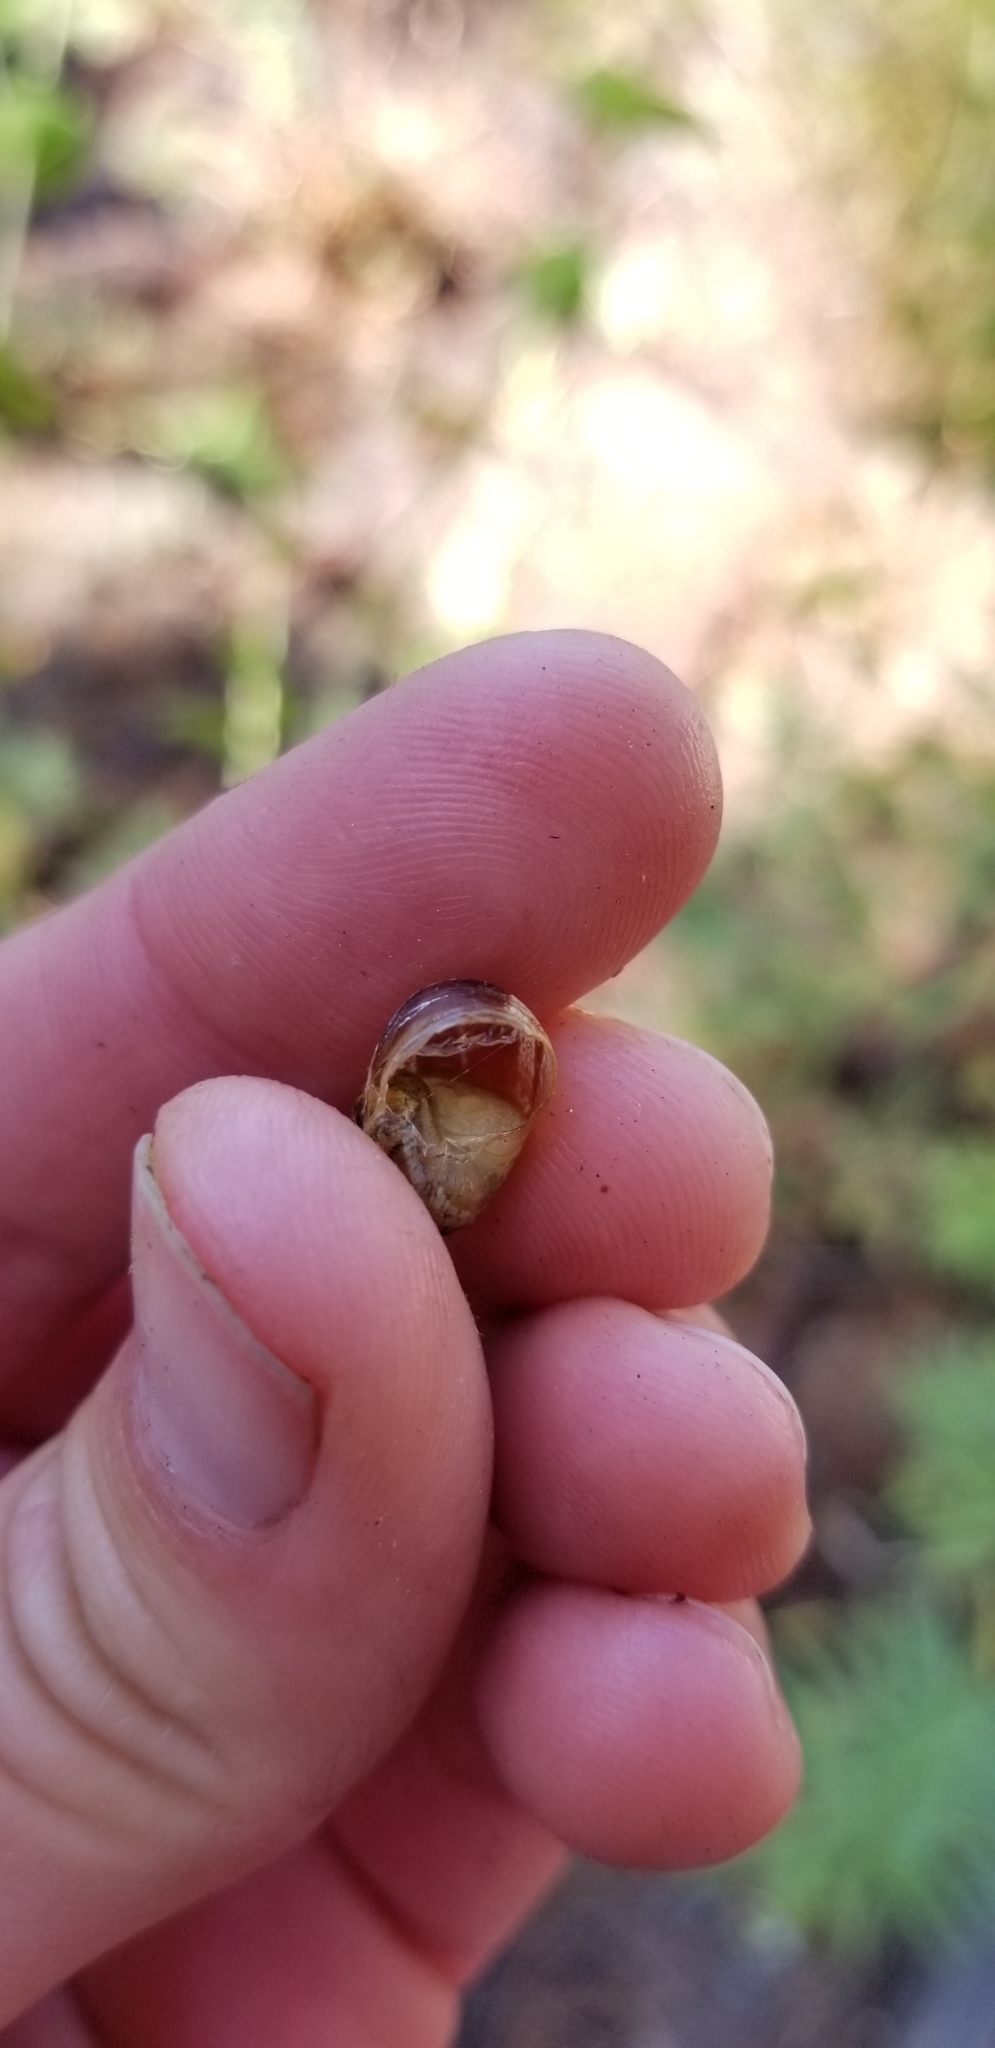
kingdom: Animalia
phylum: Mollusca
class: Gastropoda
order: Stylommatophora
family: Helicidae
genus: Cornu
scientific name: Cornu aspersum
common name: Brown garden snail
